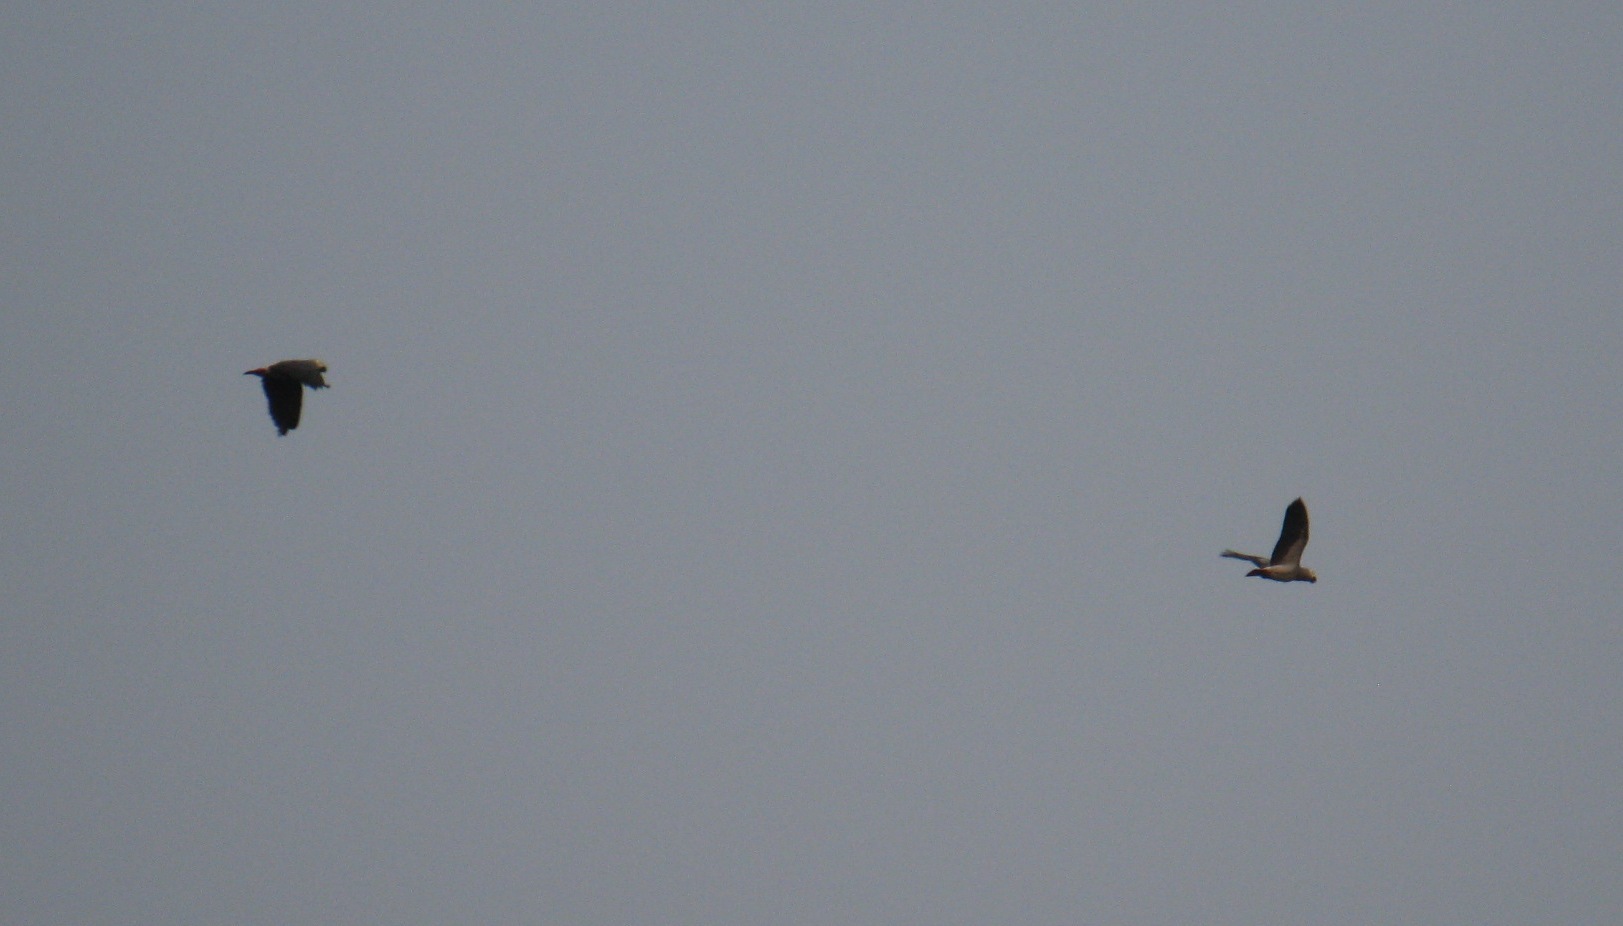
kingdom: Animalia
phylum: Chordata
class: Aves
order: Psittaciformes
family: Psittacidae
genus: Psittacus
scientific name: Psittacus erithacus
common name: Grey parrot
